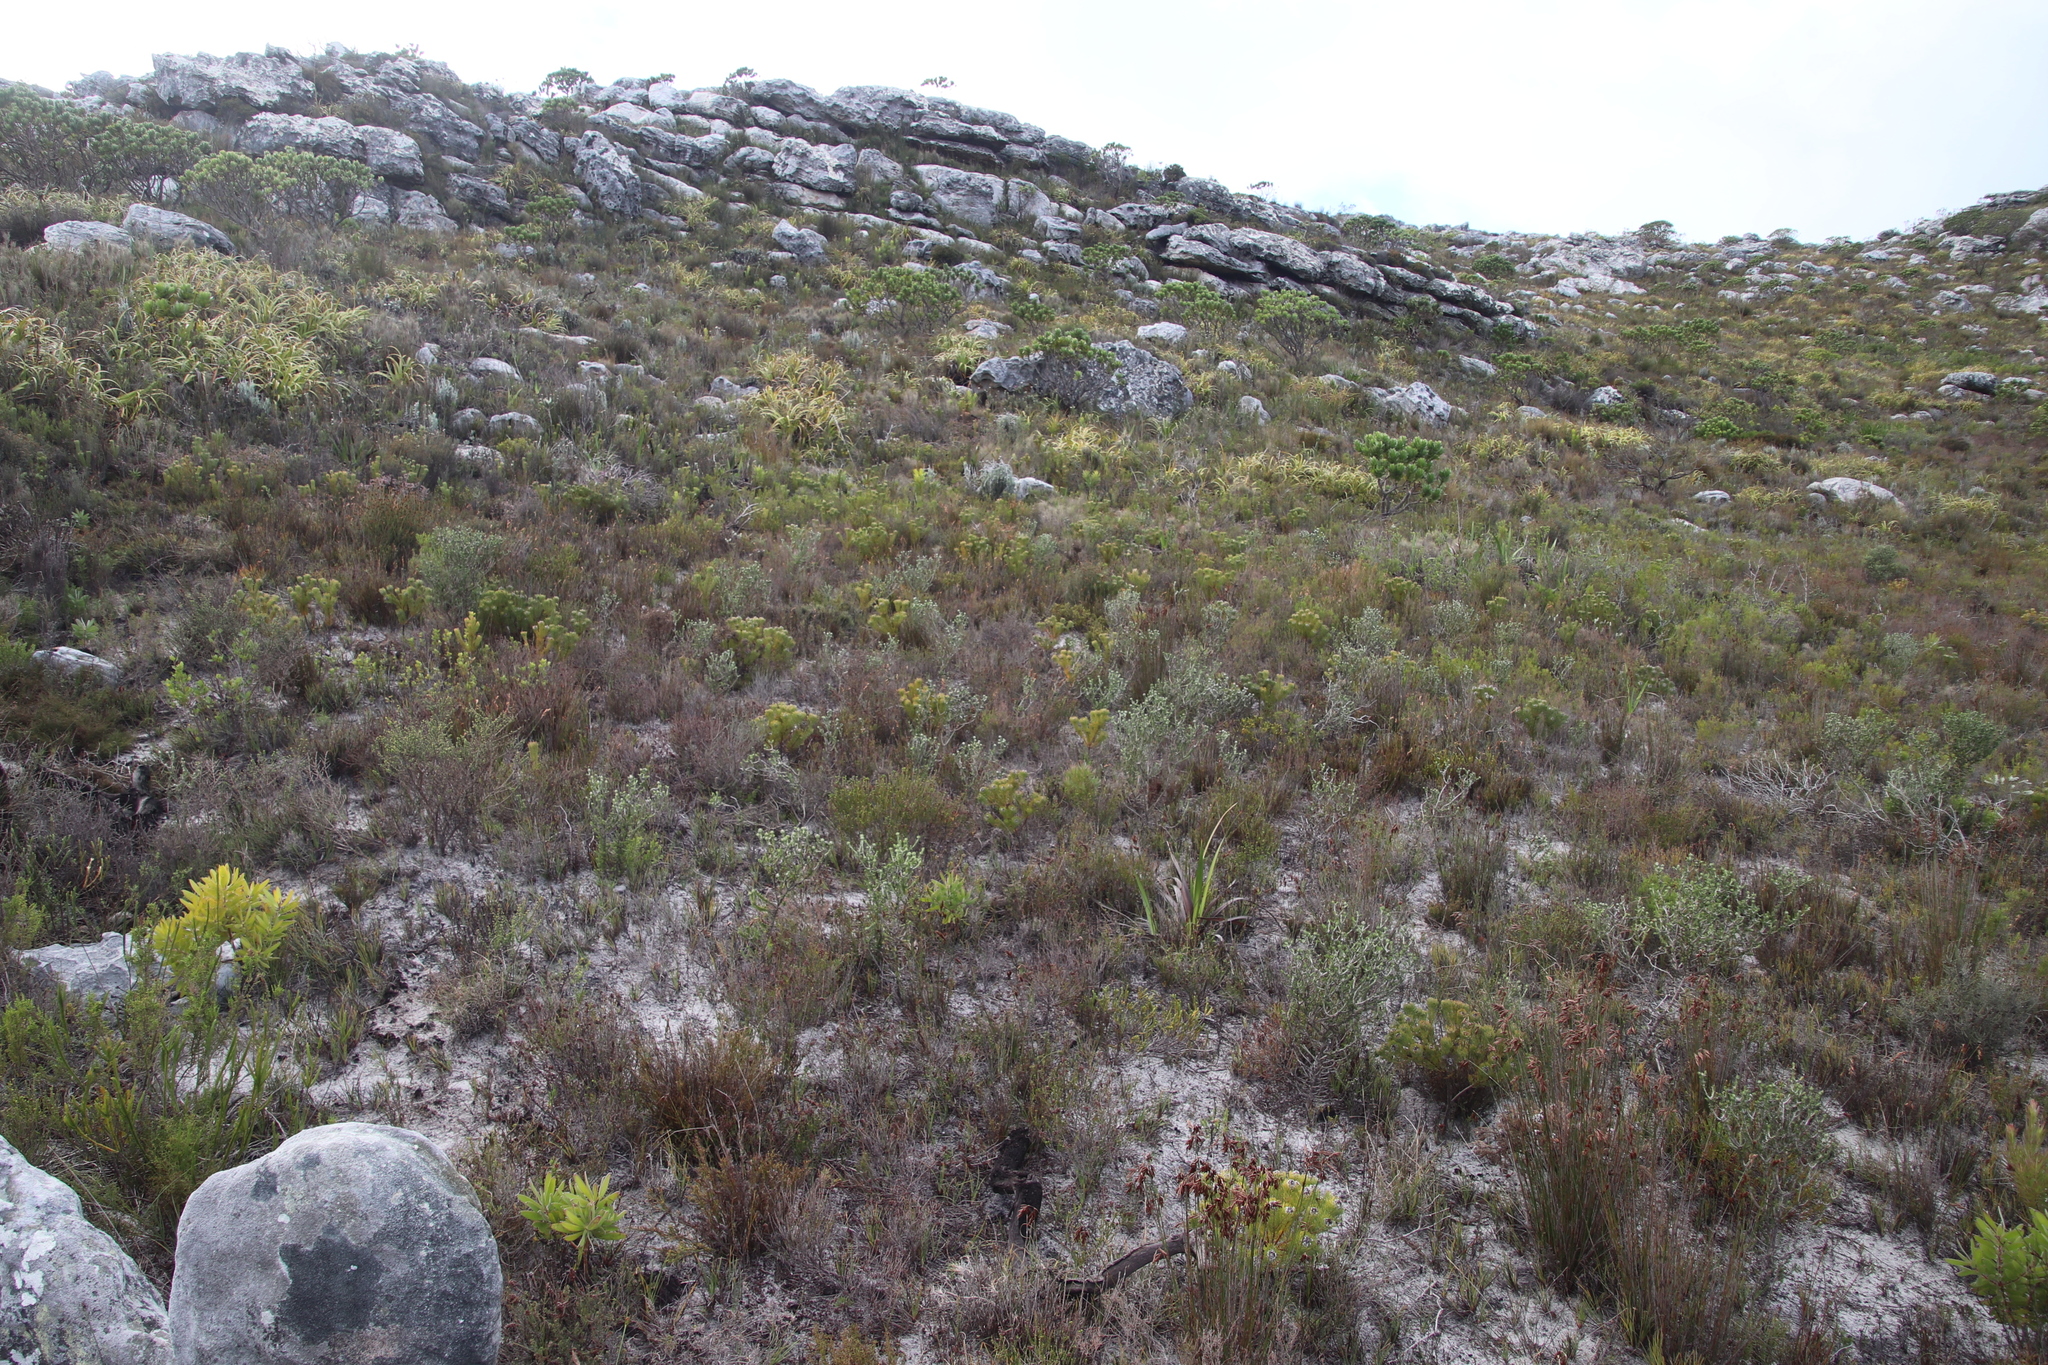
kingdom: Plantae
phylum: Tracheophyta
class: Magnoliopsida
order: Proteales
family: Proteaceae
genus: Serruria
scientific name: Serruria villosa
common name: Golden spiderhead
